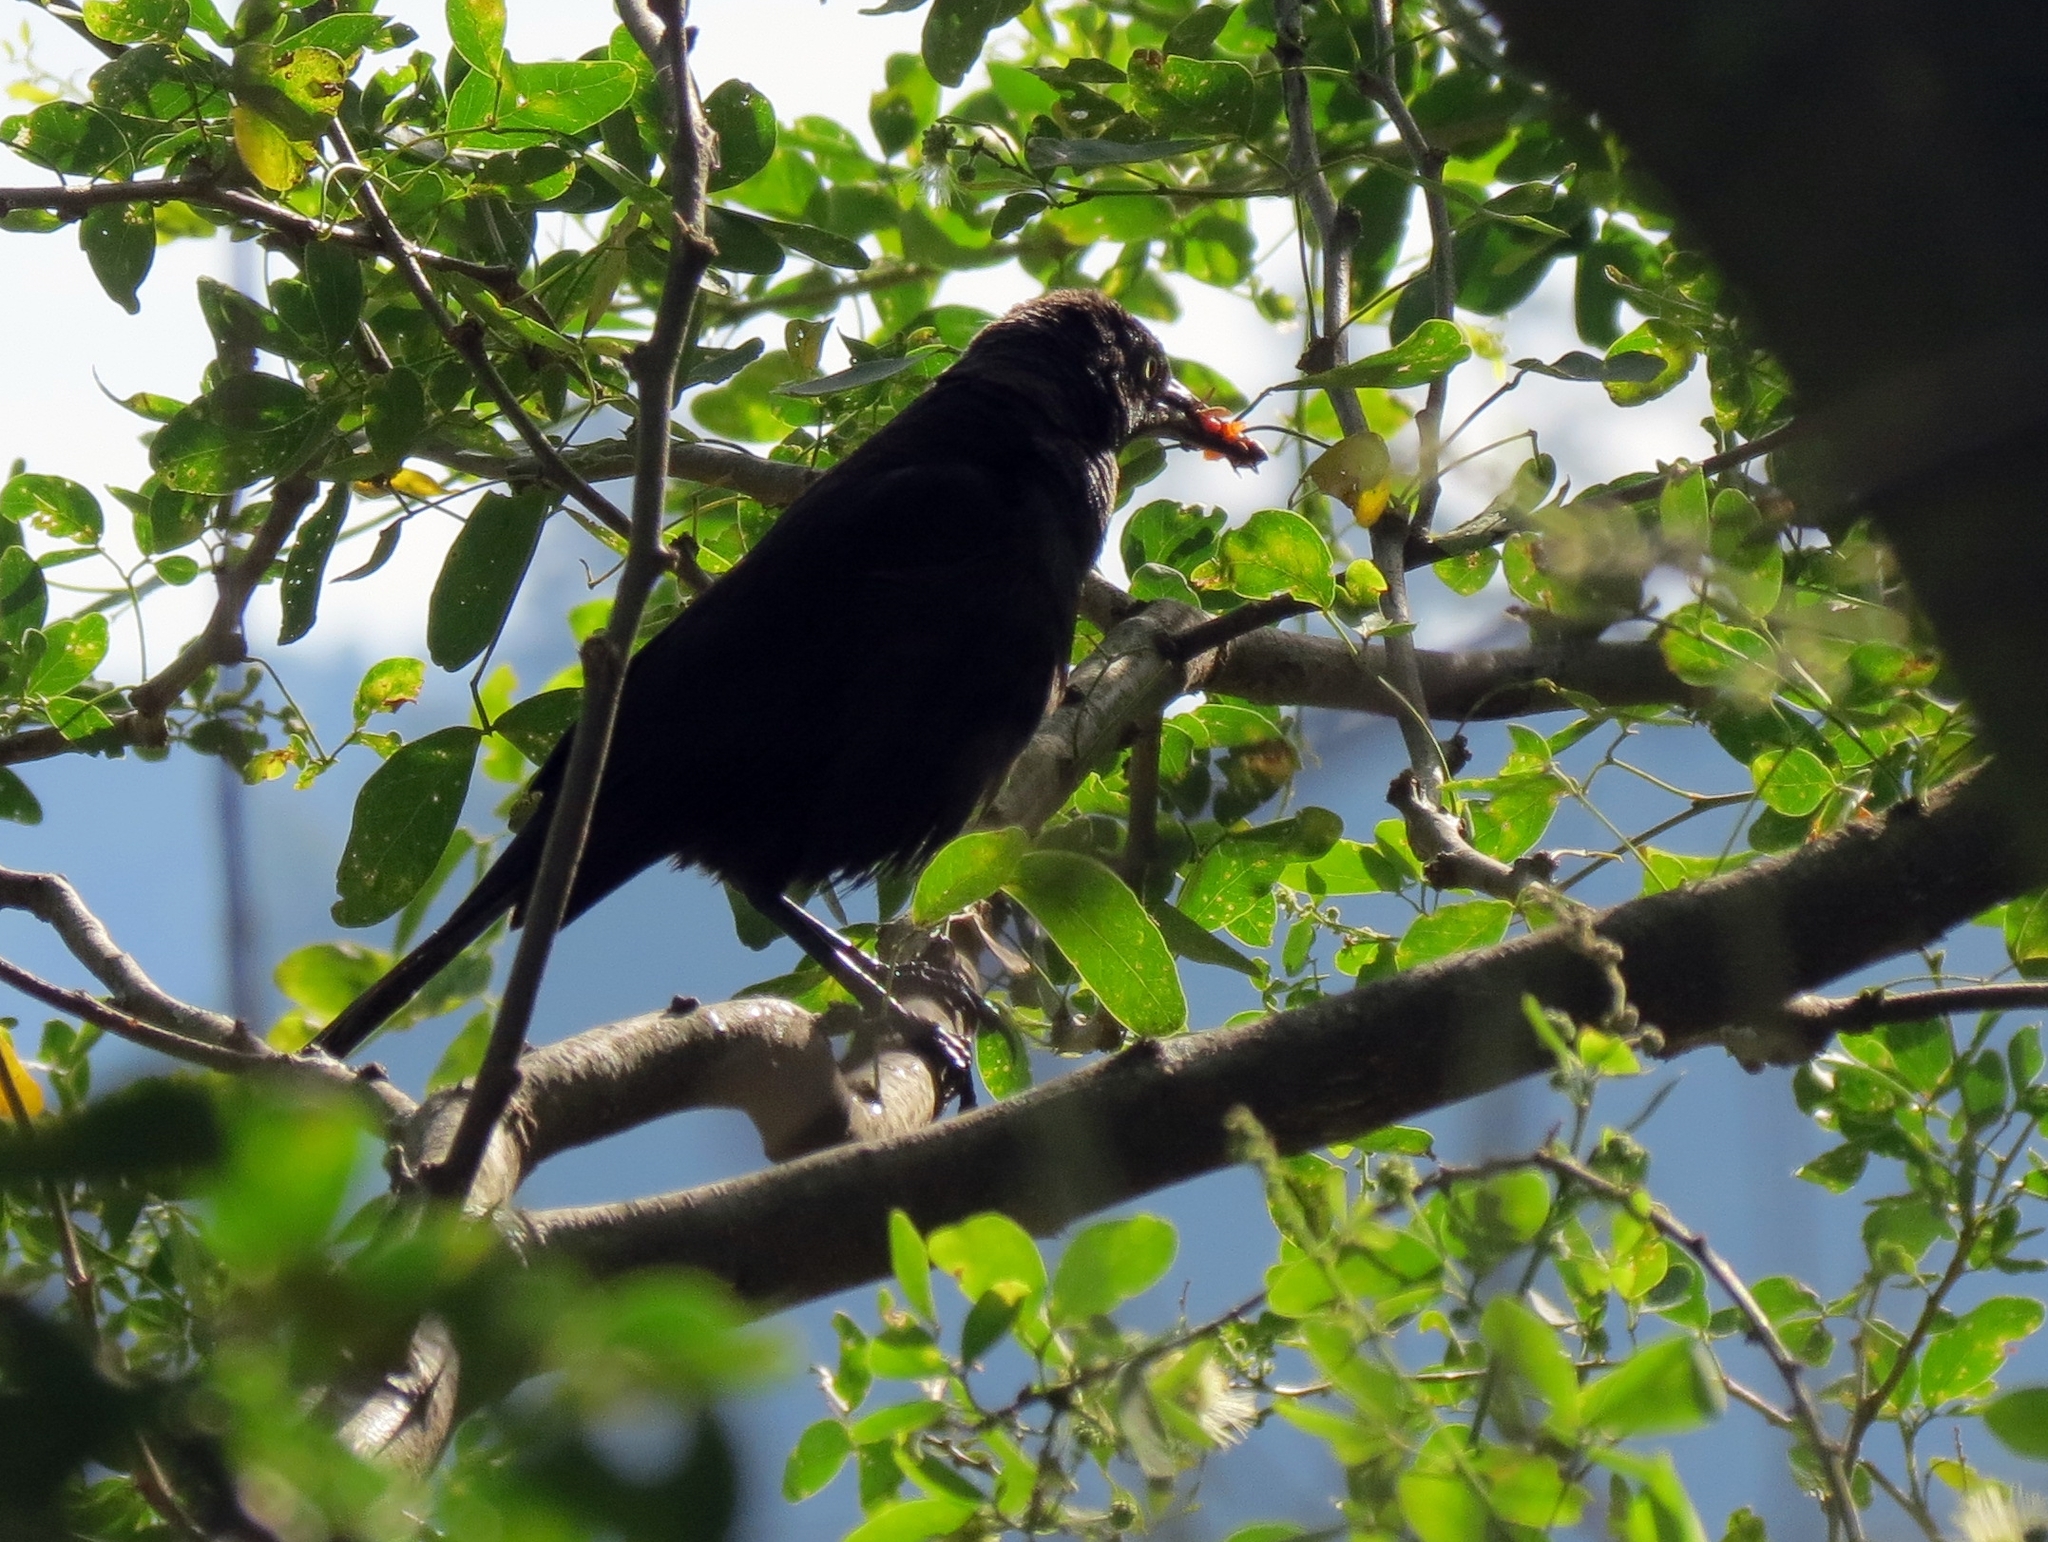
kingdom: Animalia
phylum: Chordata
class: Aves
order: Passeriformes
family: Icteridae
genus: Quiscalus
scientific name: Quiscalus lugubris
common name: Carib grackle
